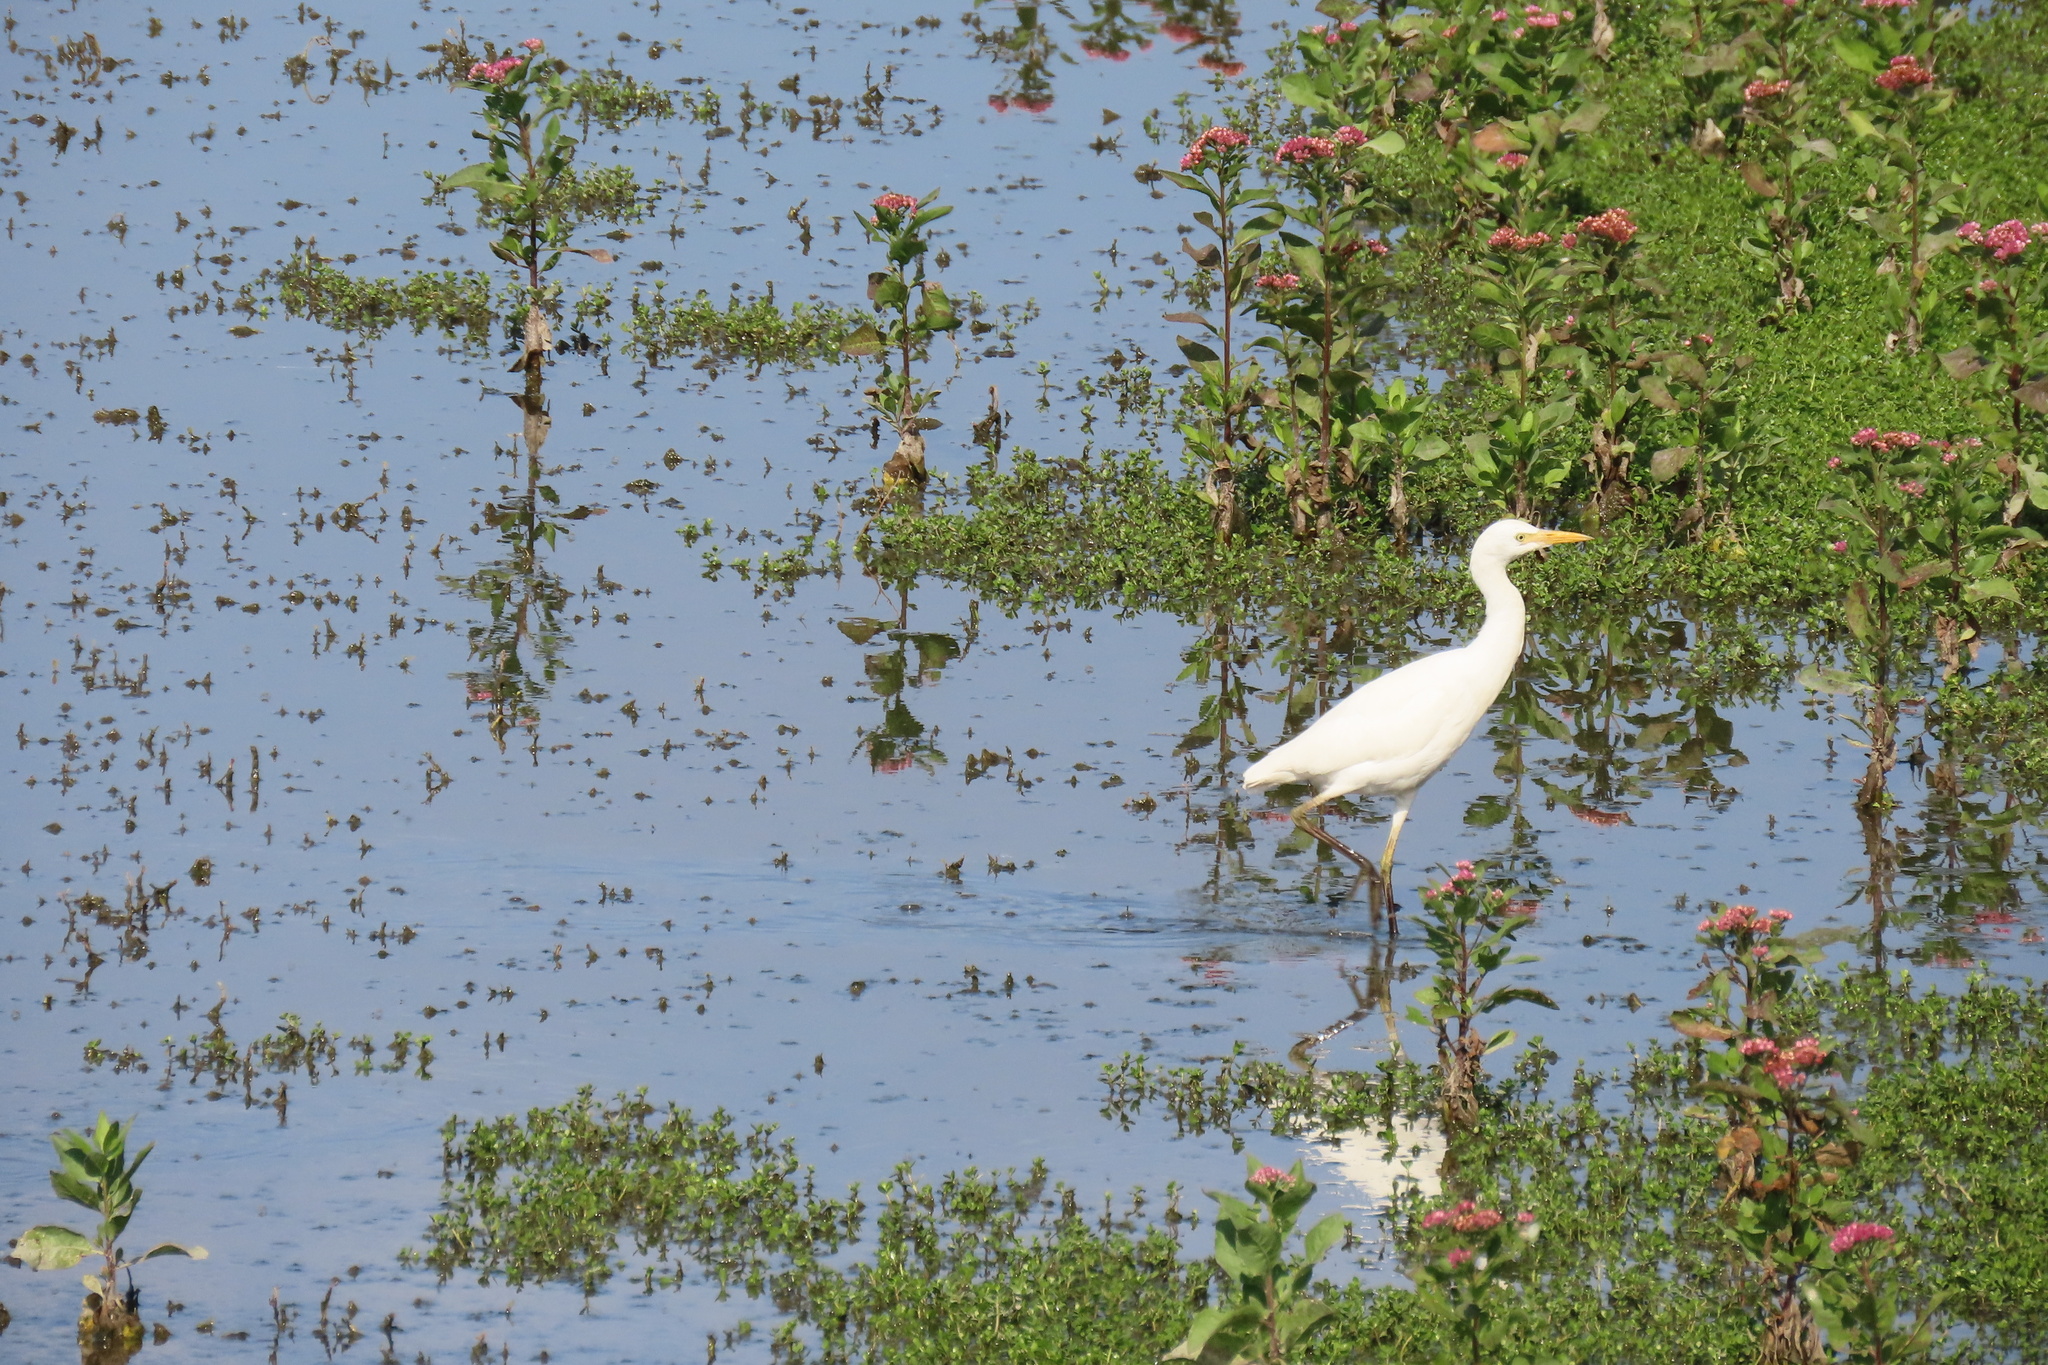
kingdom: Animalia
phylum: Chordata
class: Aves
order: Pelecaniformes
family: Ardeidae
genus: Bubulcus
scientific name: Bubulcus ibis
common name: Cattle egret
